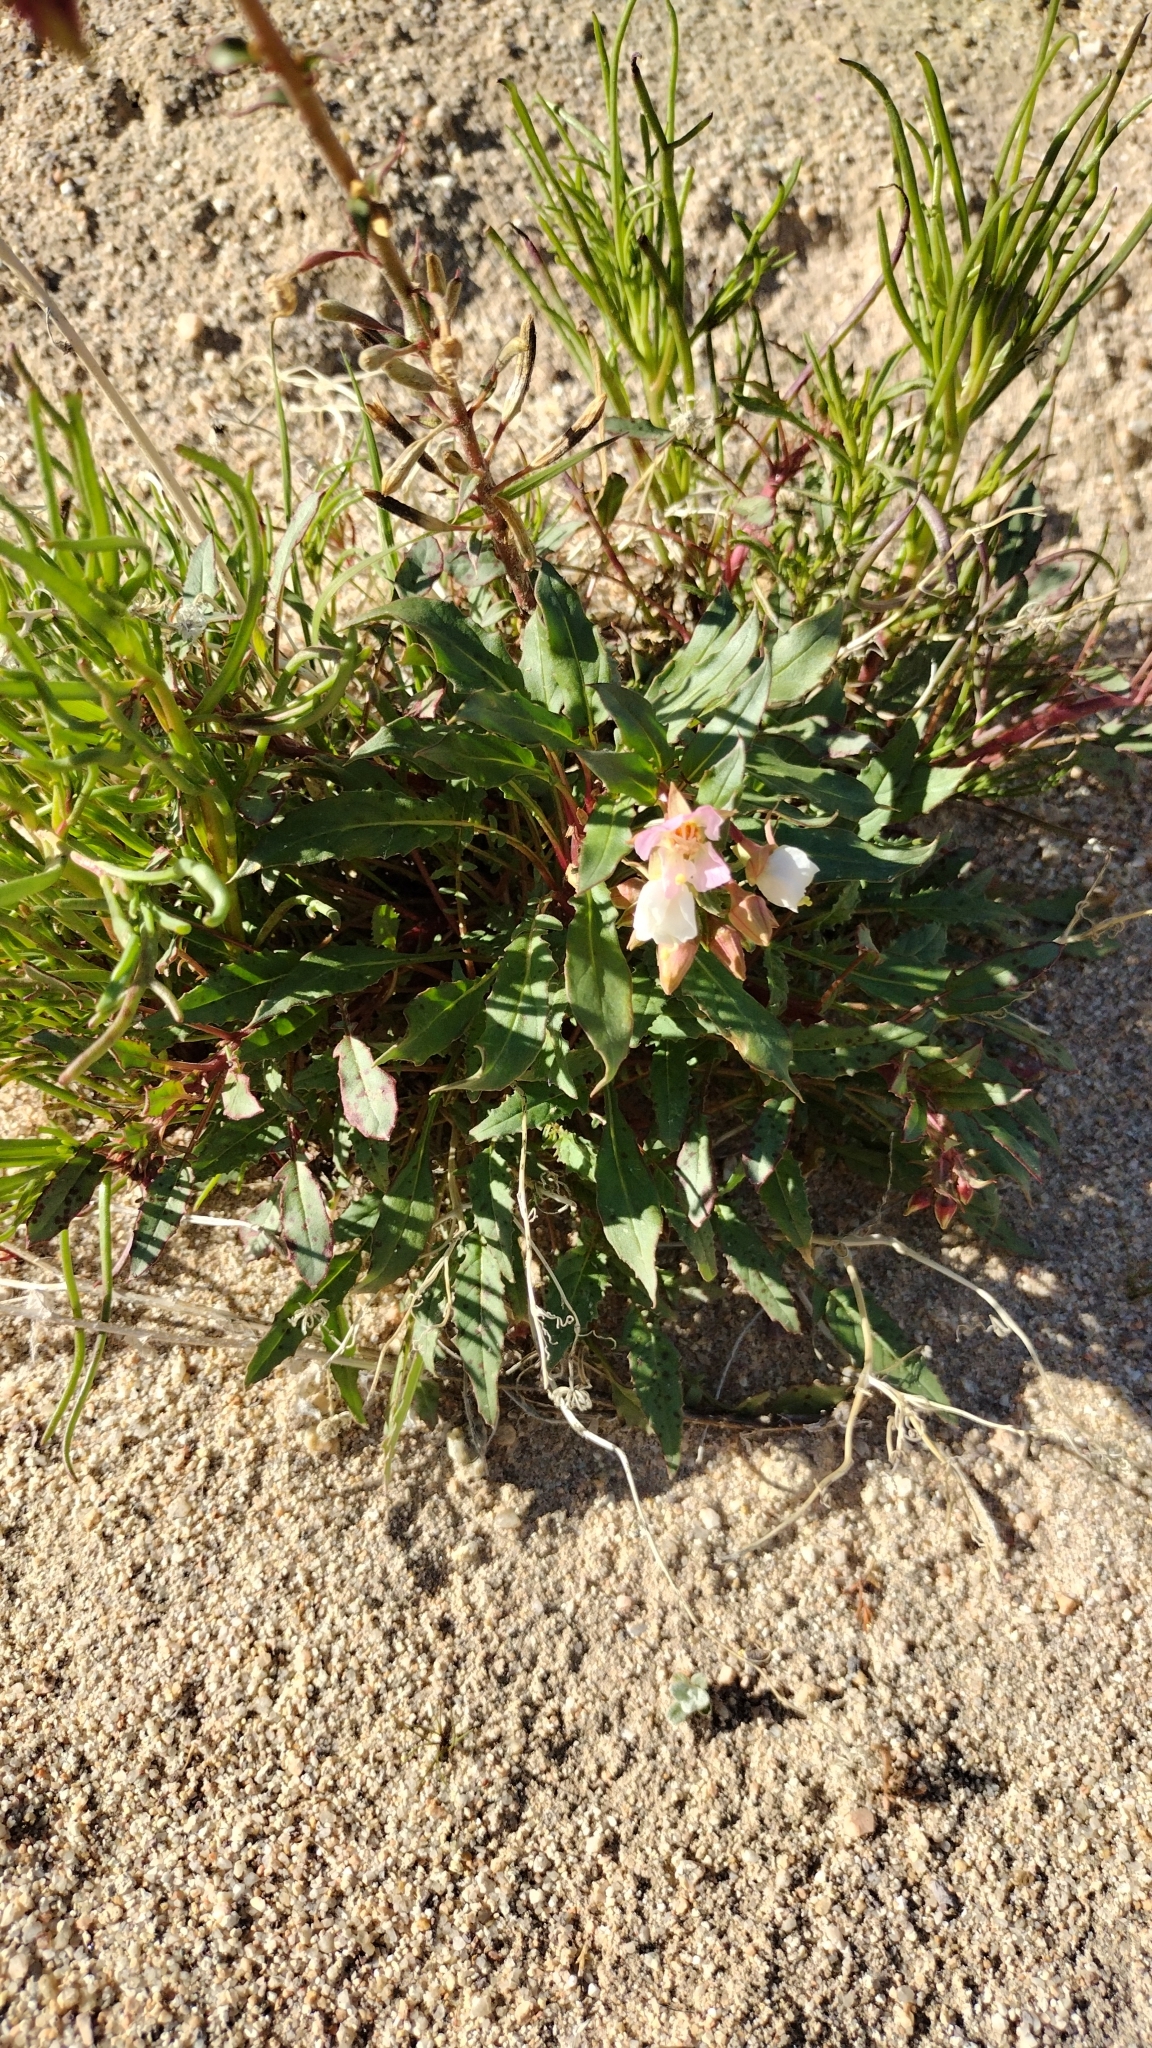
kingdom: Plantae
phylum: Tracheophyta
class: Magnoliopsida
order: Myrtales
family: Onagraceae
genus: Chylismia
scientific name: Chylismia claviformis
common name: Browneyes
